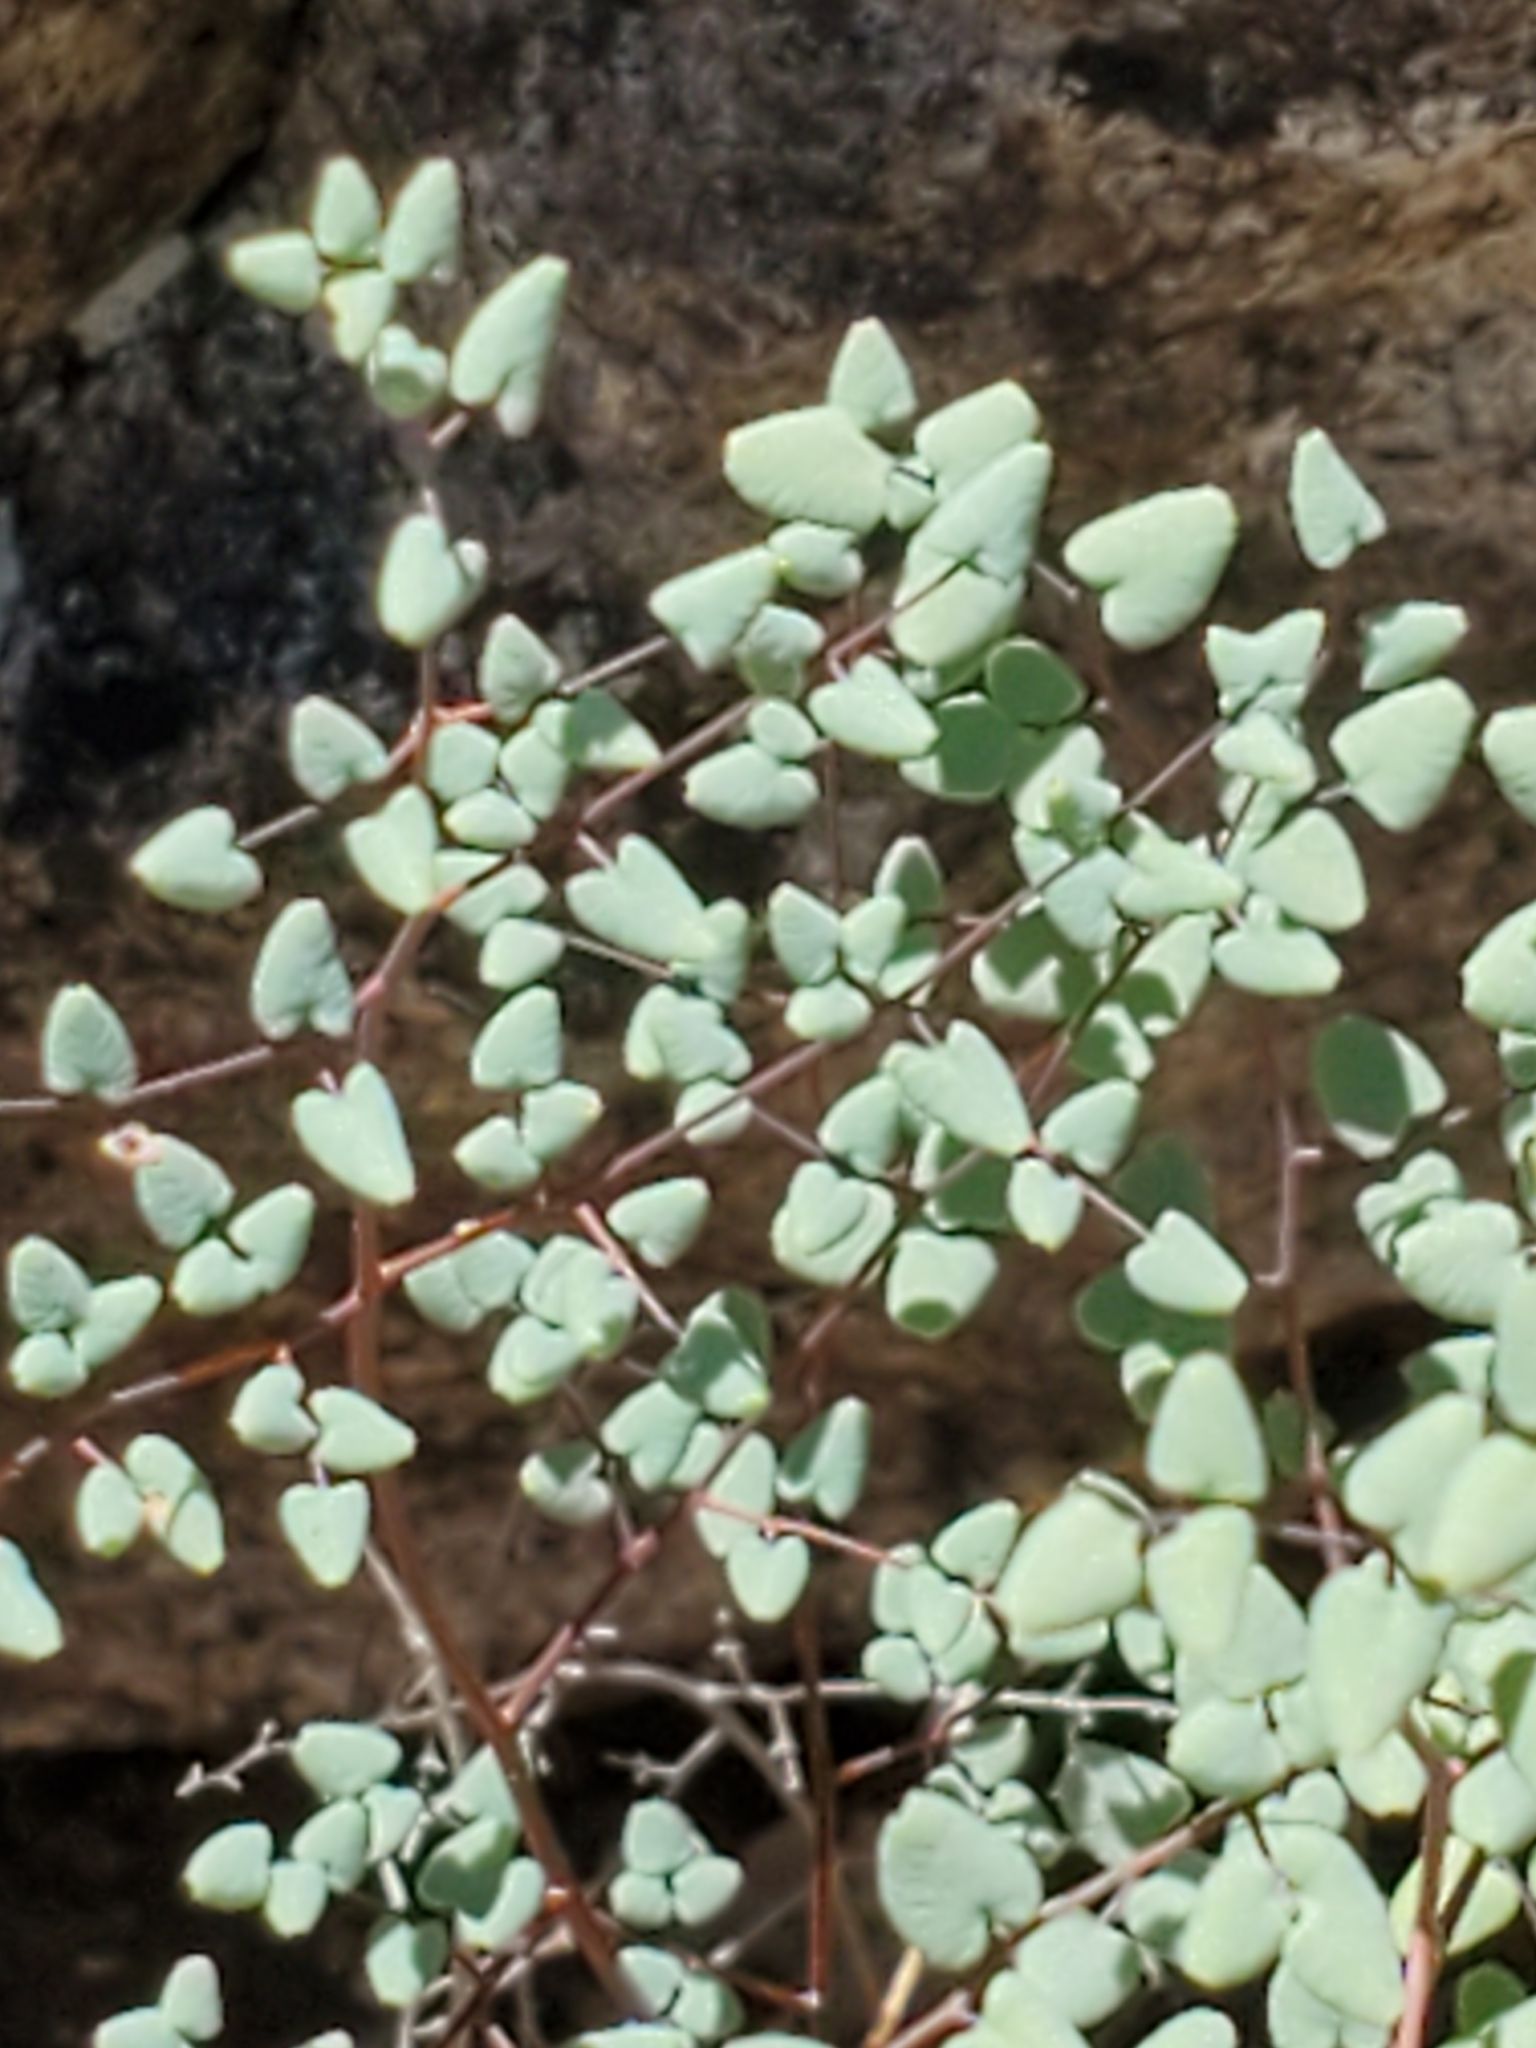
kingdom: Plantae
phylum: Tracheophyta
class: Polypodiopsida
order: Polypodiales
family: Pteridaceae
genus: Argyrochosma
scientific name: Argyrochosma microphylla
